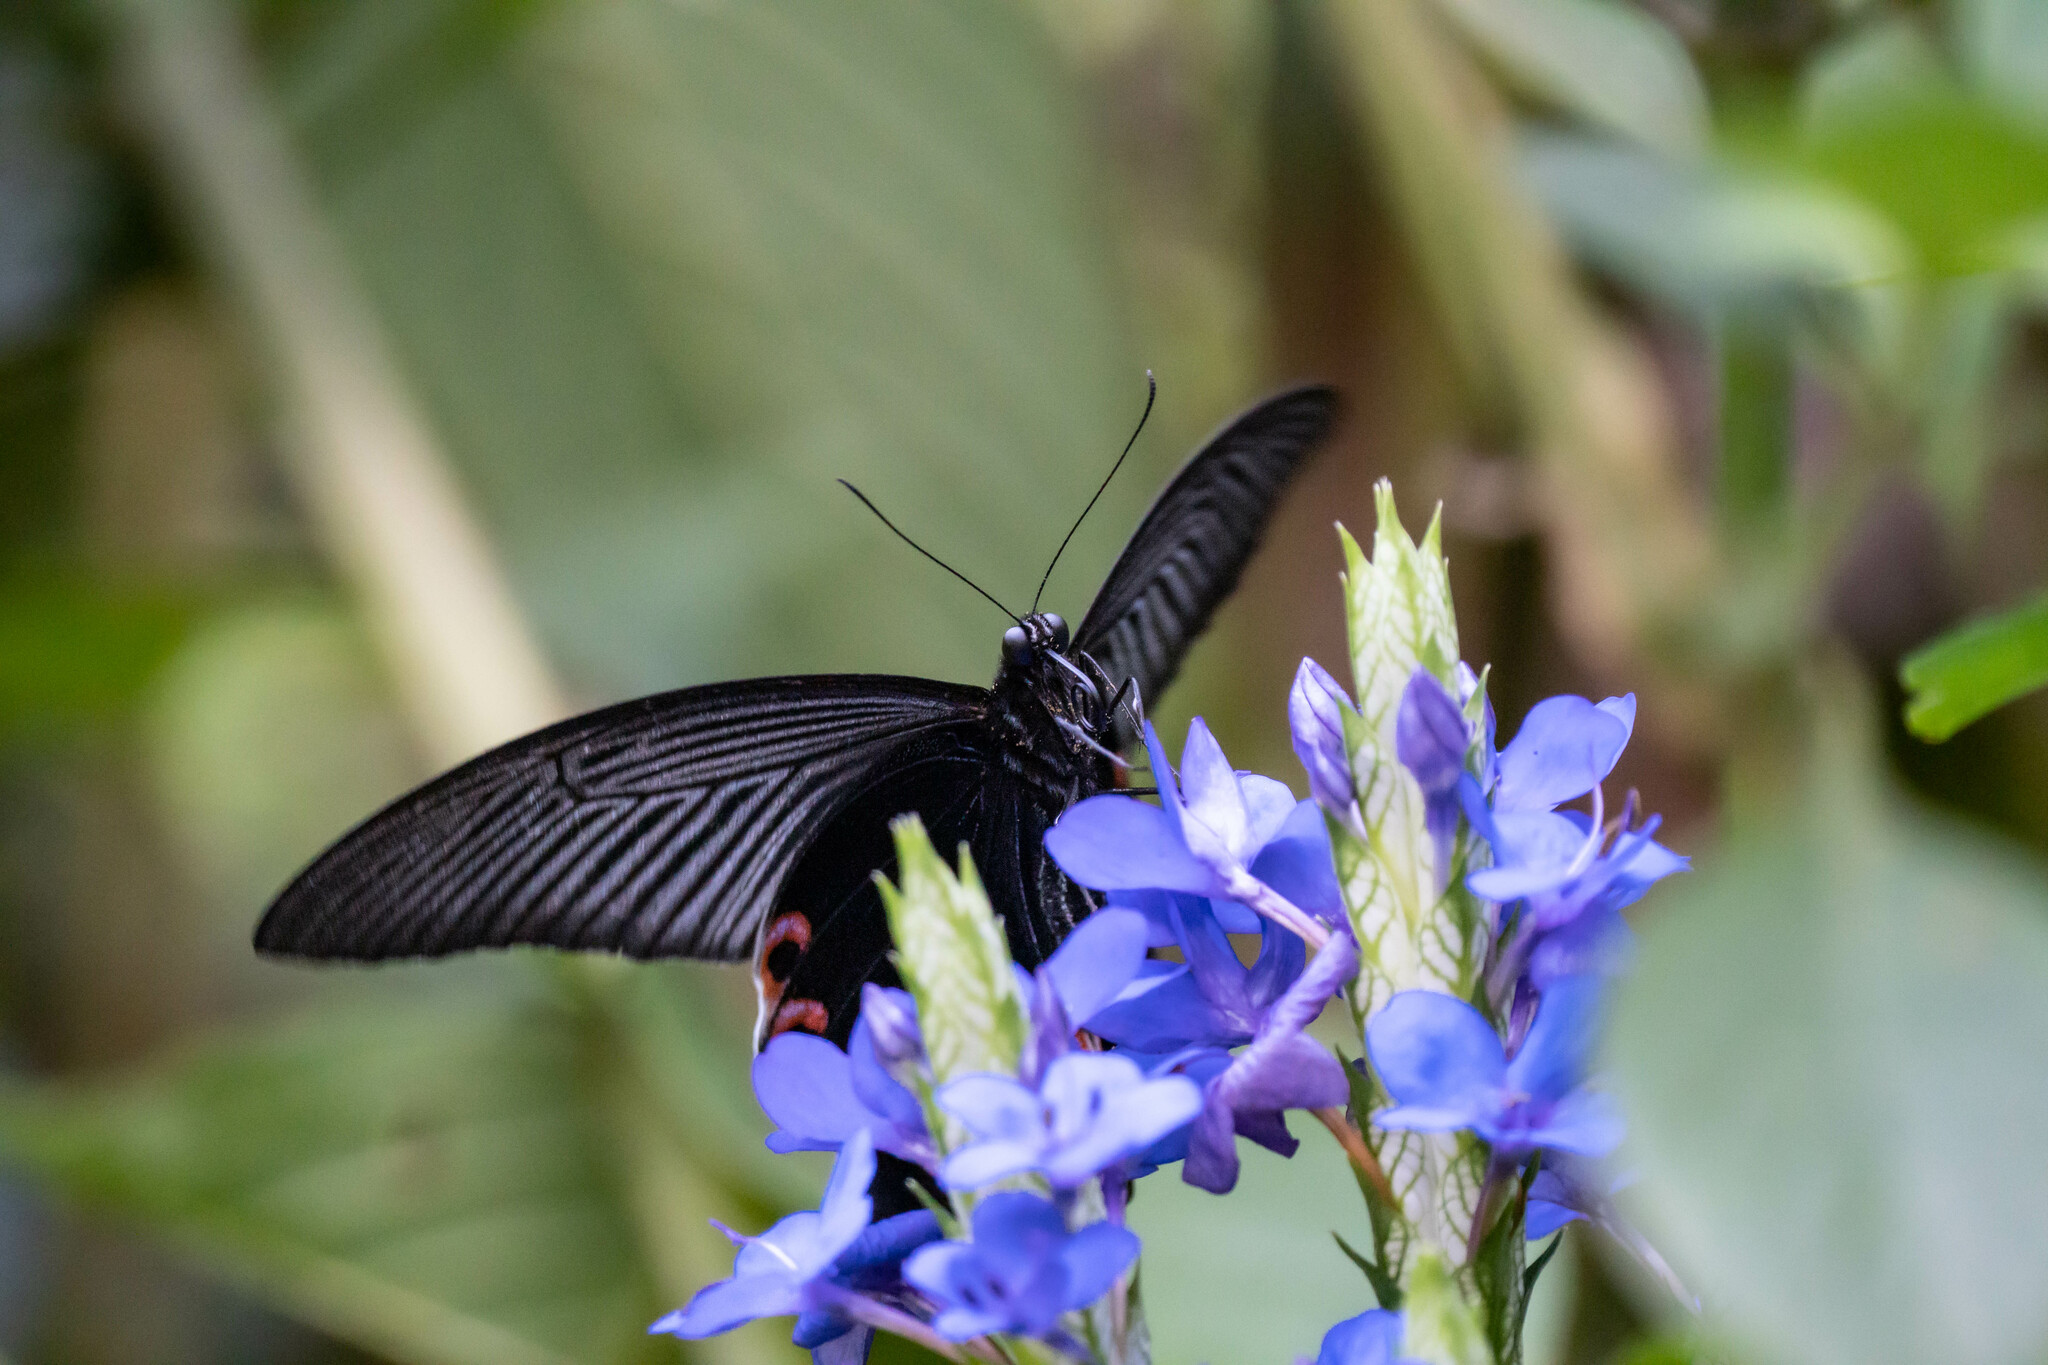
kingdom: Animalia
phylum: Arthropoda
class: Insecta
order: Lepidoptera
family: Papilionidae
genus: Papilio
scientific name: Papilio protenor
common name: Spangle
